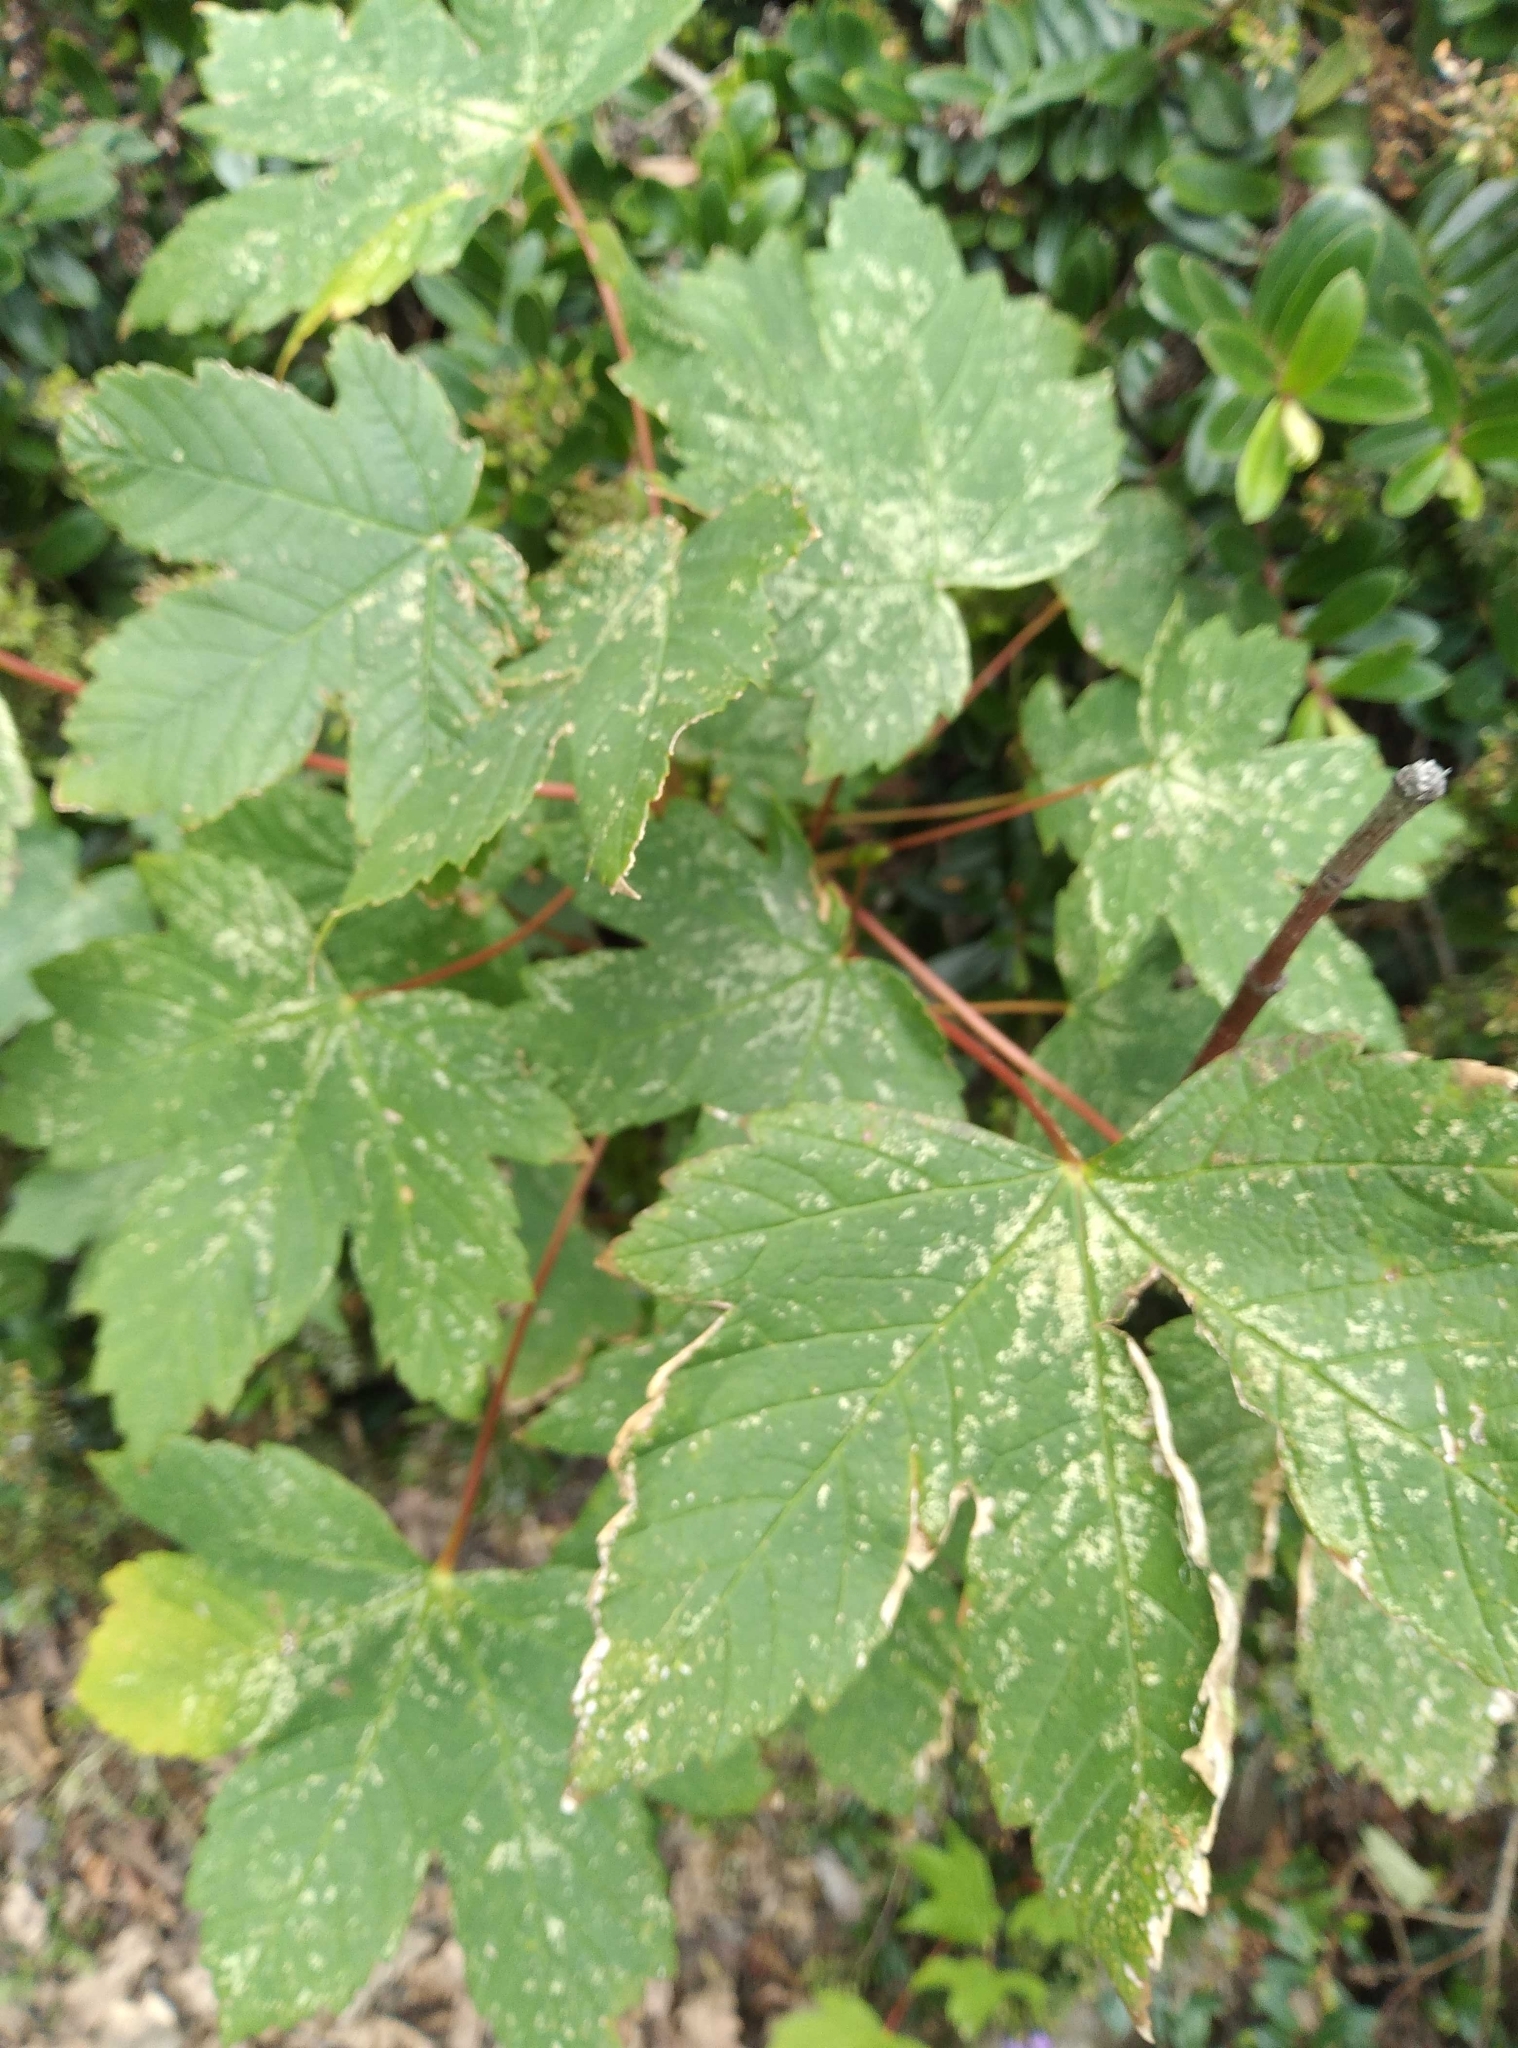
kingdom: Plantae
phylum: Tracheophyta
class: Magnoliopsida
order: Sapindales
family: Sapindaceae
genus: Acer
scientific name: Acer pseudoplatanus
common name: Sycamore
